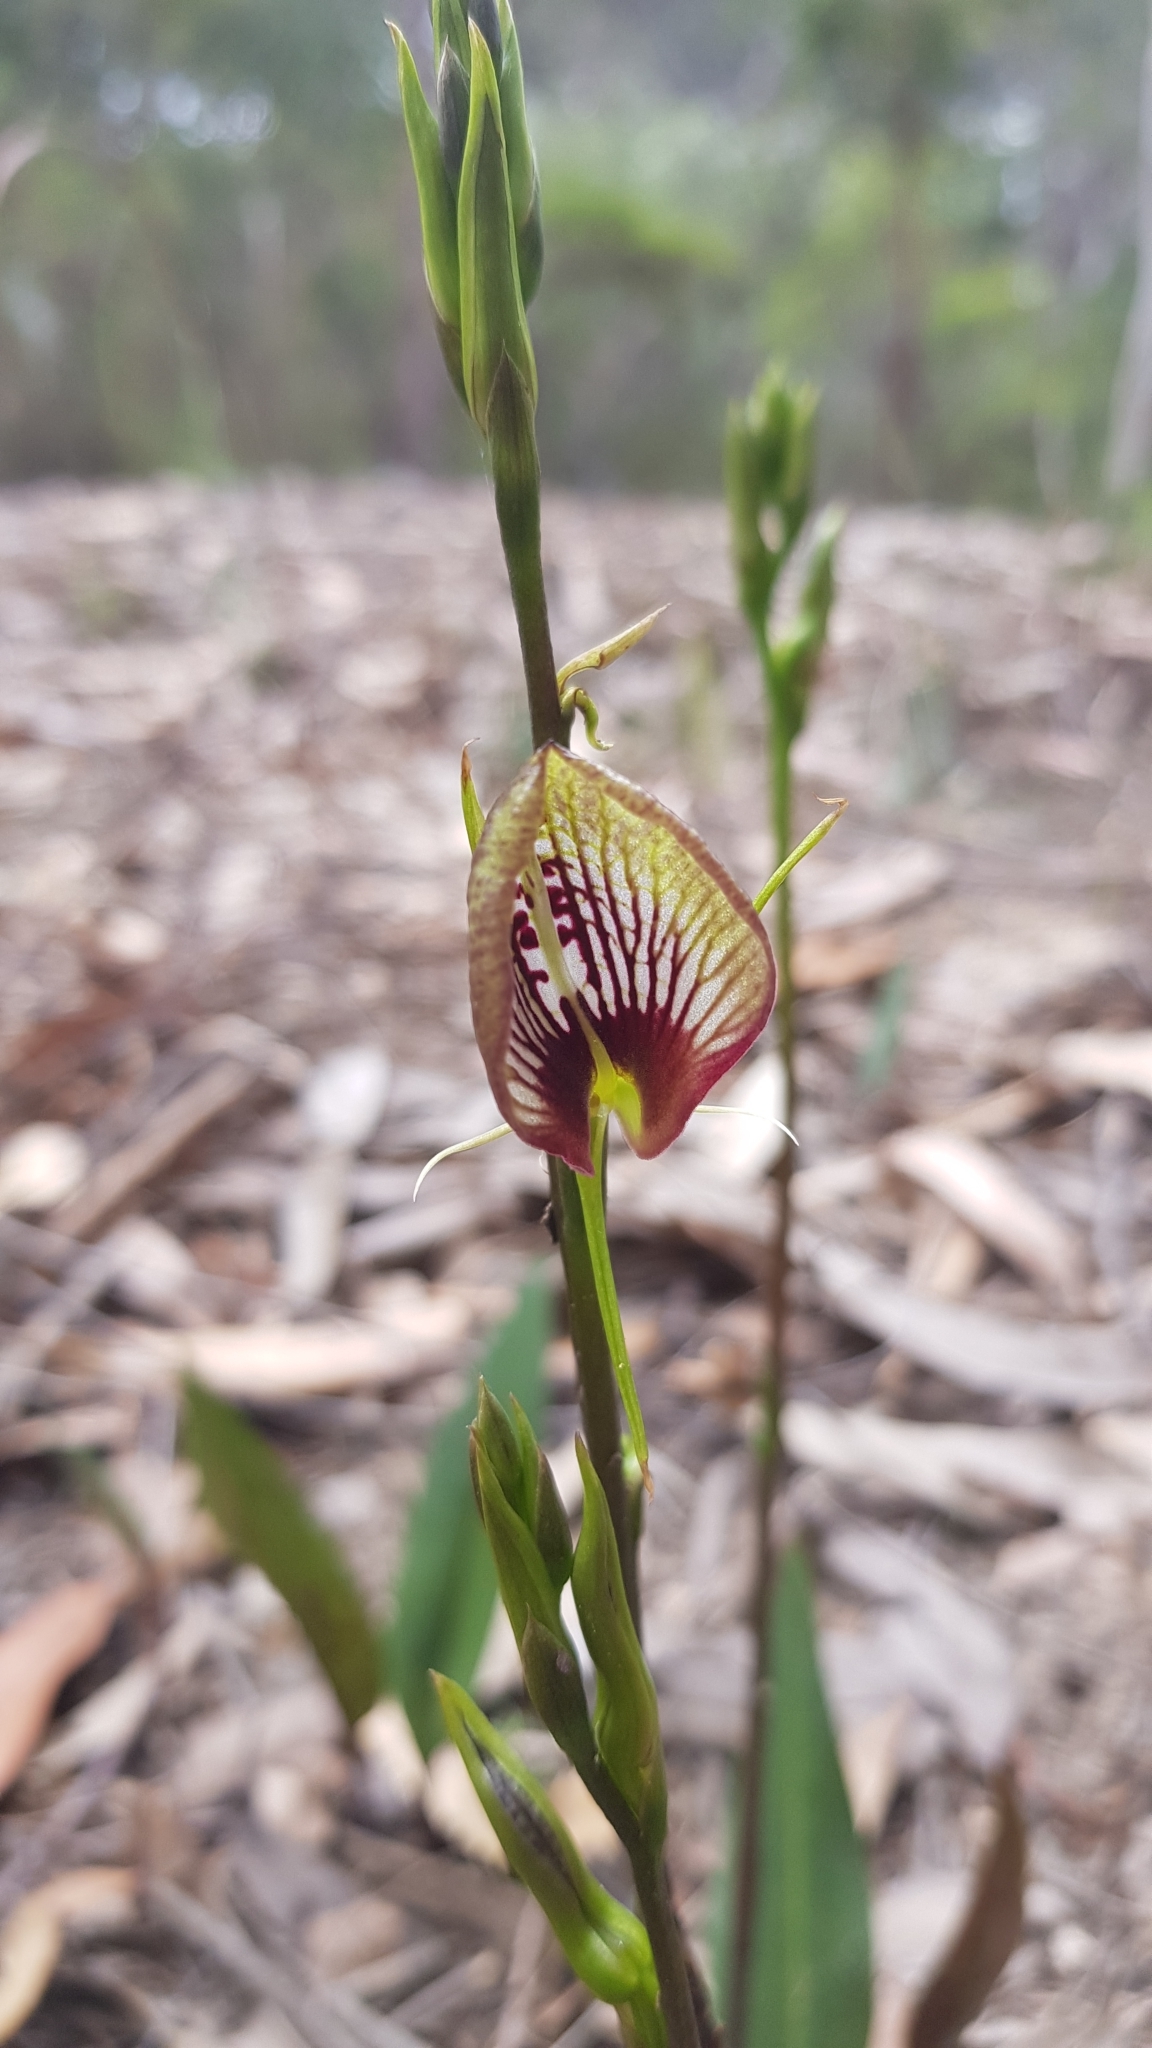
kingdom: Plantae
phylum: Tracheophyta
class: Liliopsida
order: Asparagales
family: Orchidaceae
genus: Cryptostylis
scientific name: Cryptostylis erecta
